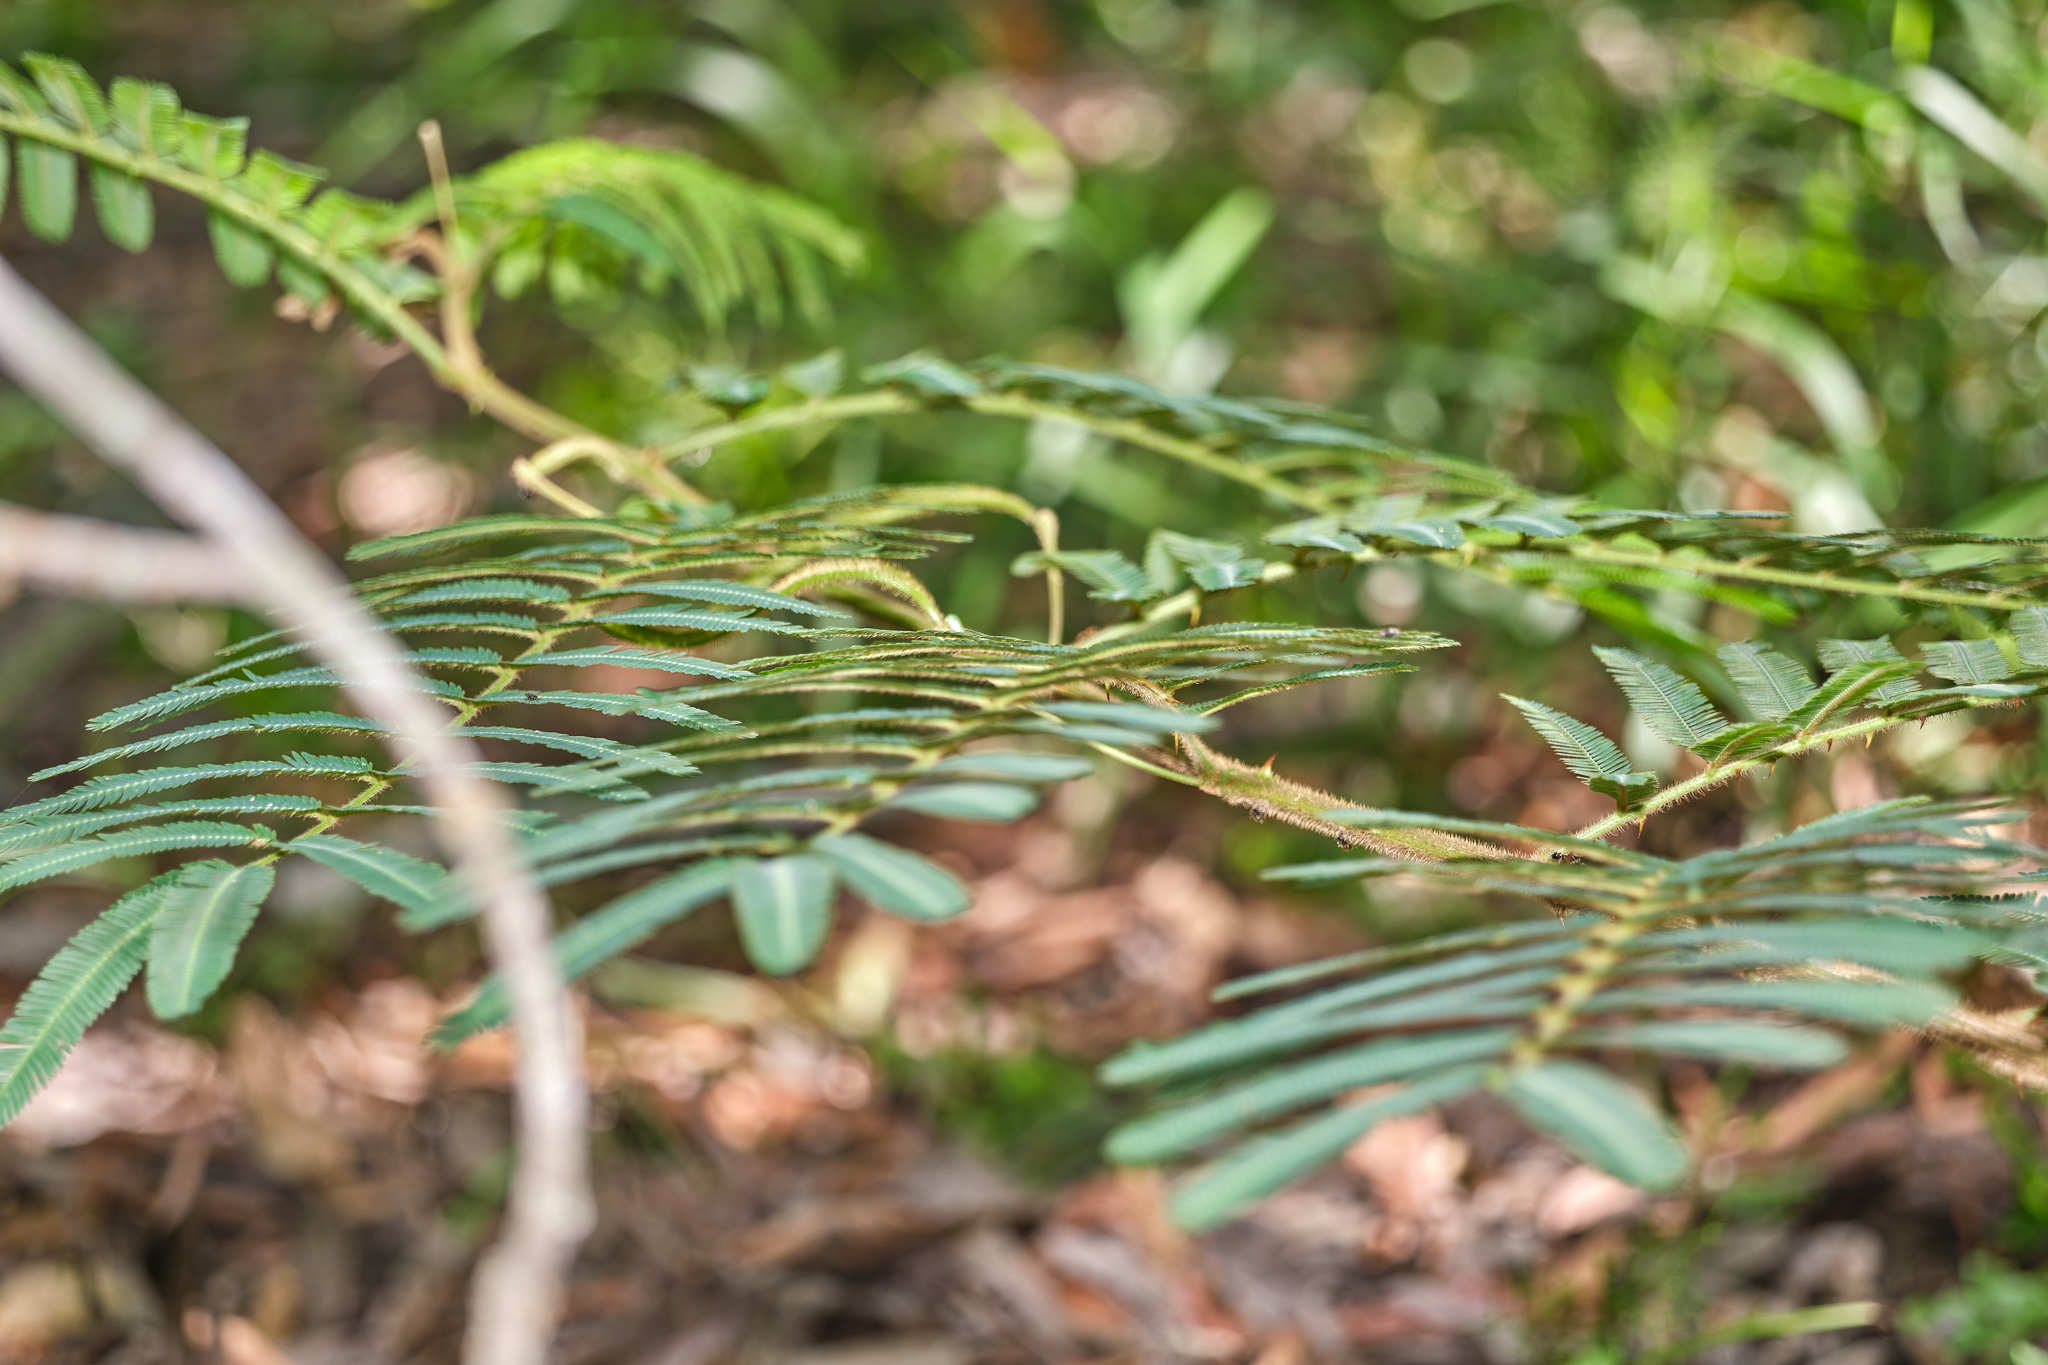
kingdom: Plantae
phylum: Tracheophyta
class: Magnoliopsida
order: Fabales
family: Fabaceae
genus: Mimosa
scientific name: Mimosa pigra
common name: Black mimosa
